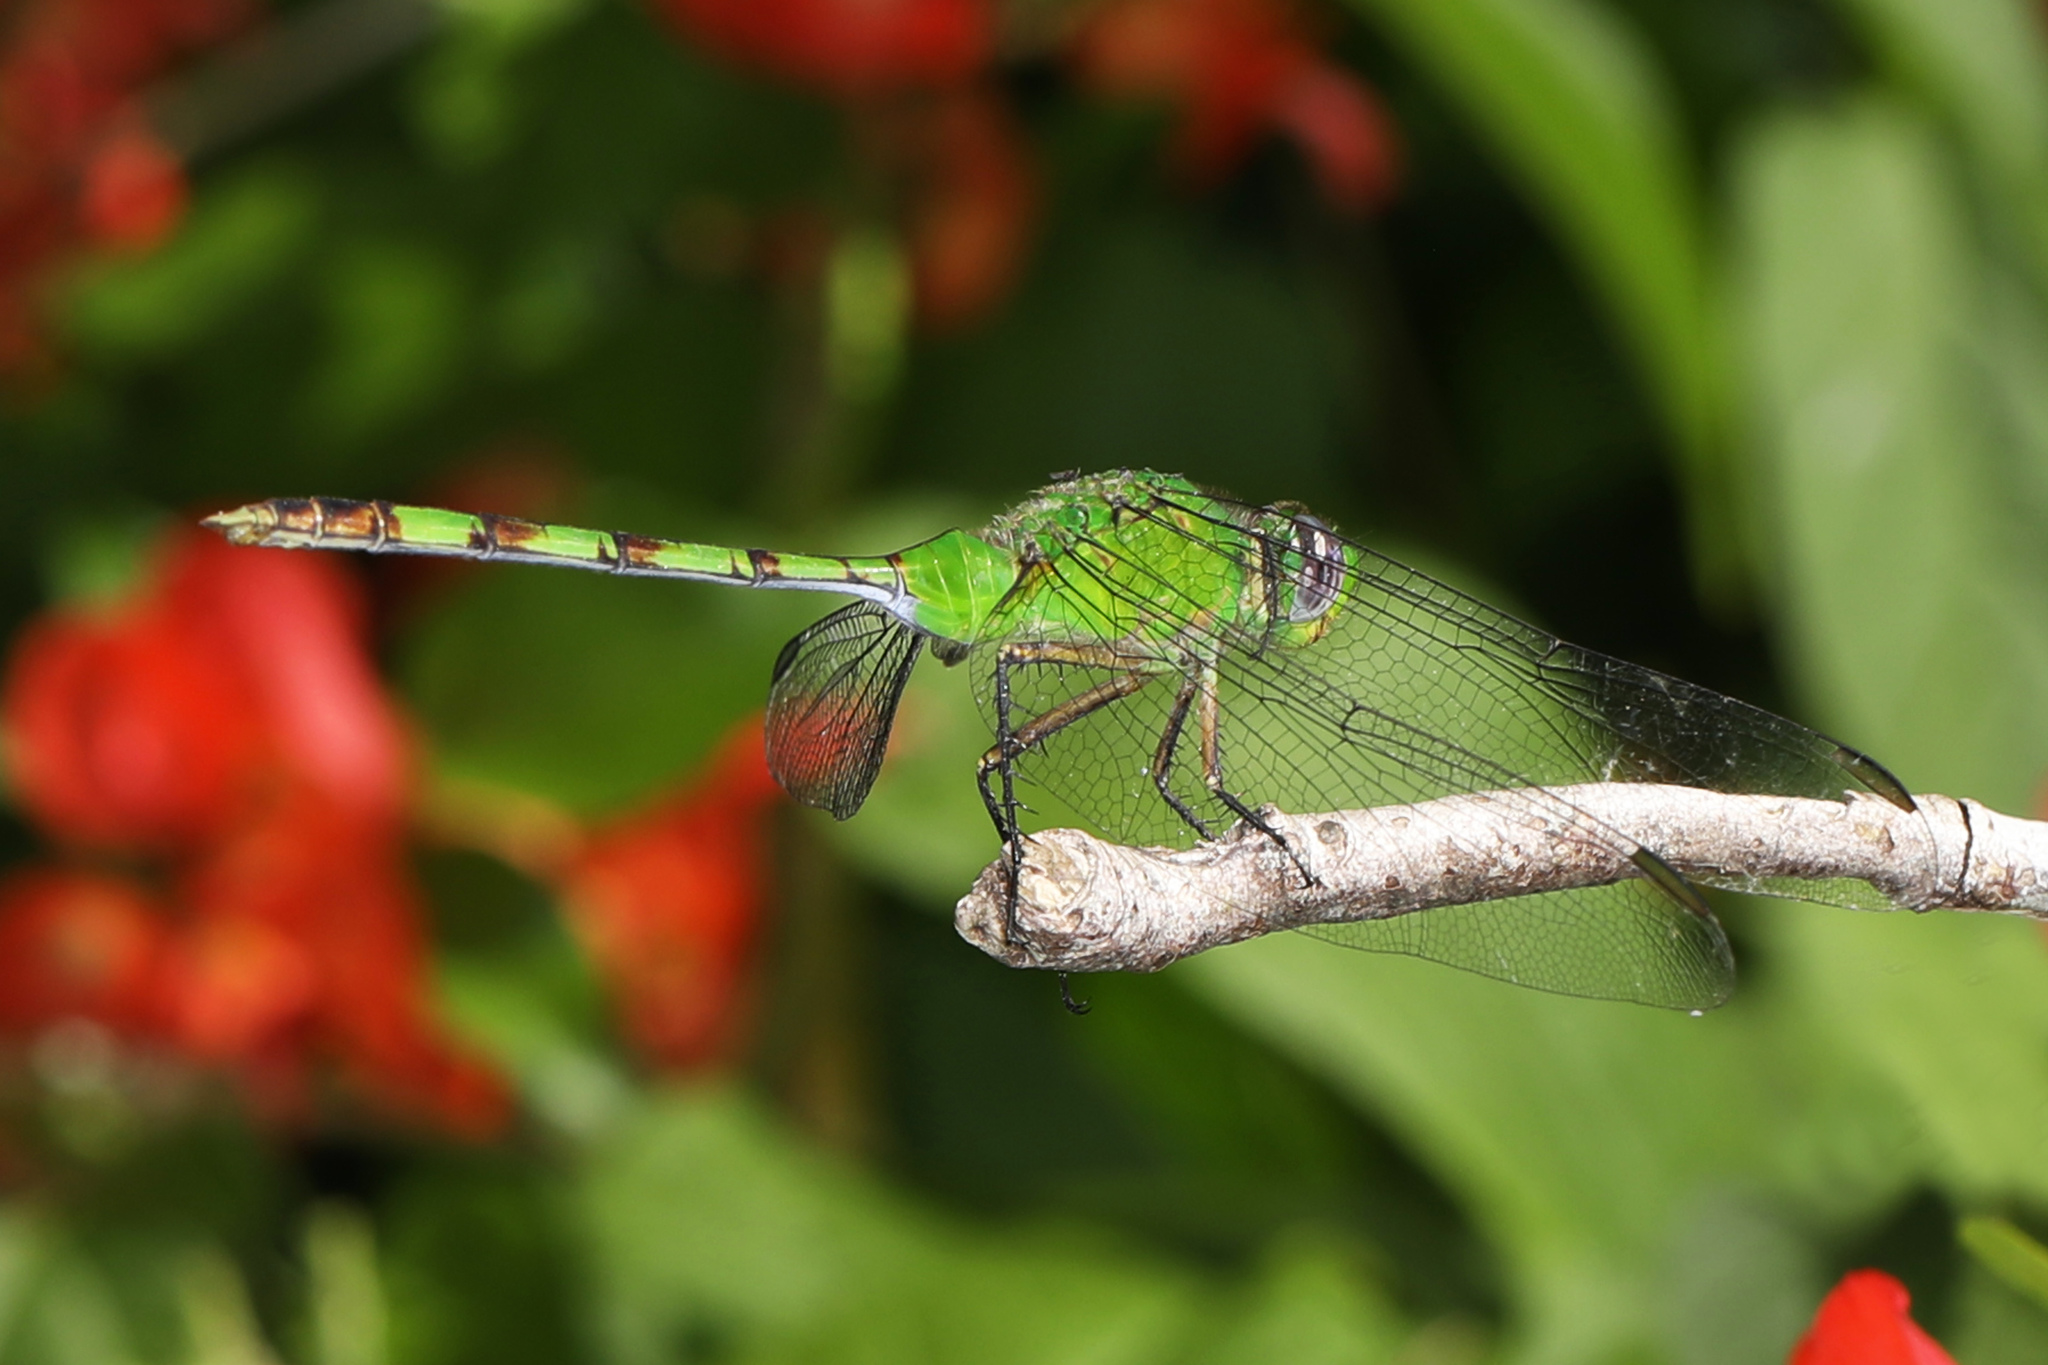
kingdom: Animalia
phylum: Arthropoda
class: Insecta
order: Odonata
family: Libellulidae
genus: Erythemis
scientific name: Erythemis vesiculosa
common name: Great pondhawk
